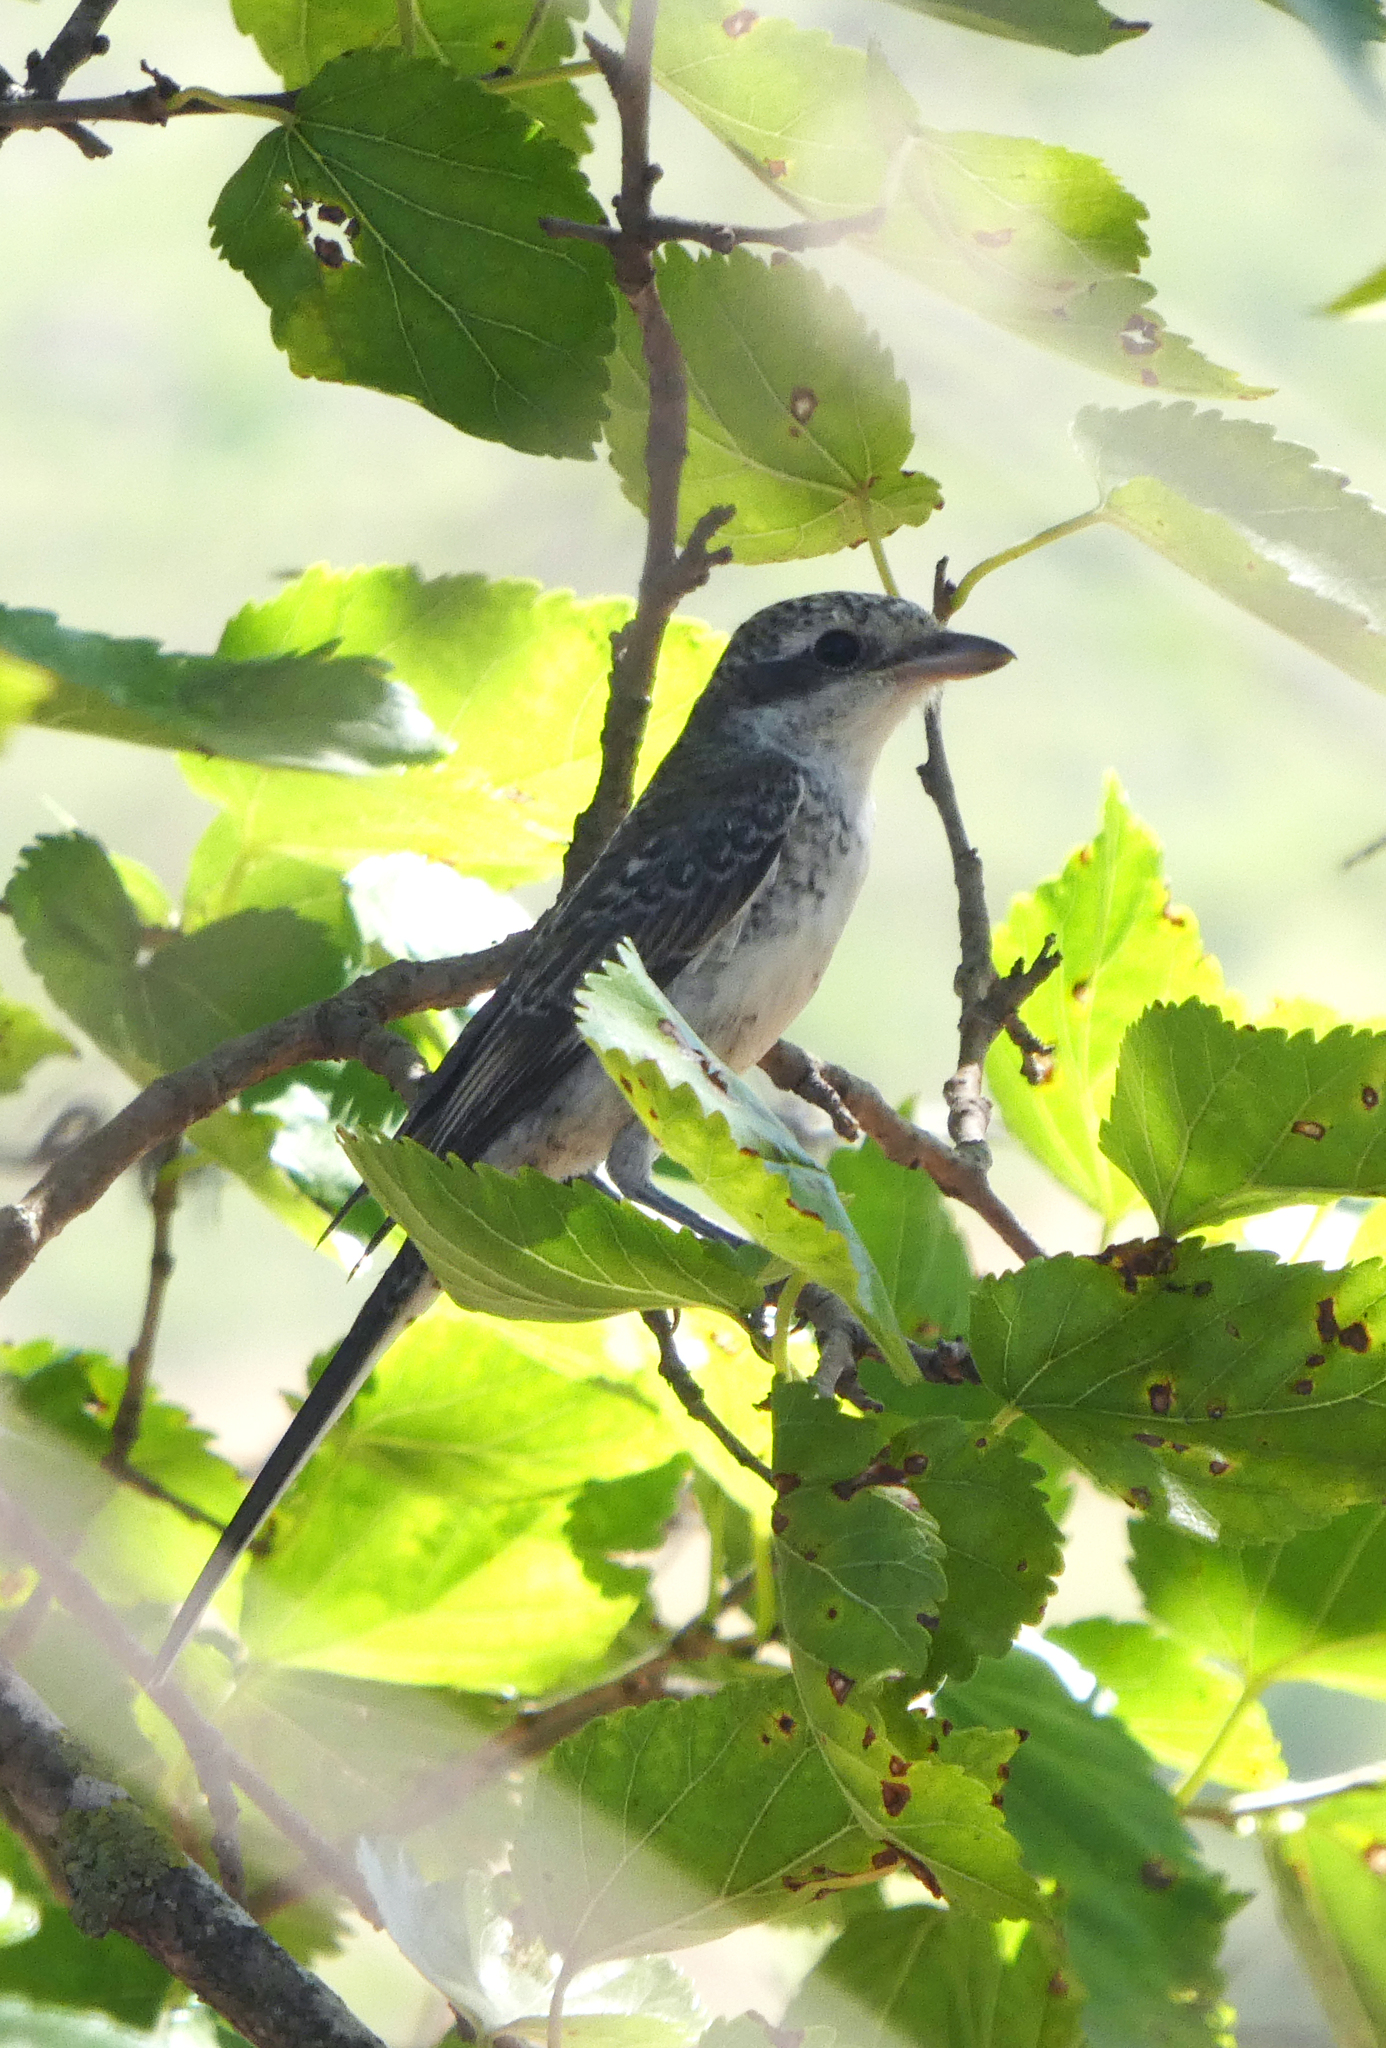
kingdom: Animalia
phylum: Chordata
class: Aves
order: Passeriformes
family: Laniidae
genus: Lanius
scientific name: Lanius nubicus
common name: Masked shrike
